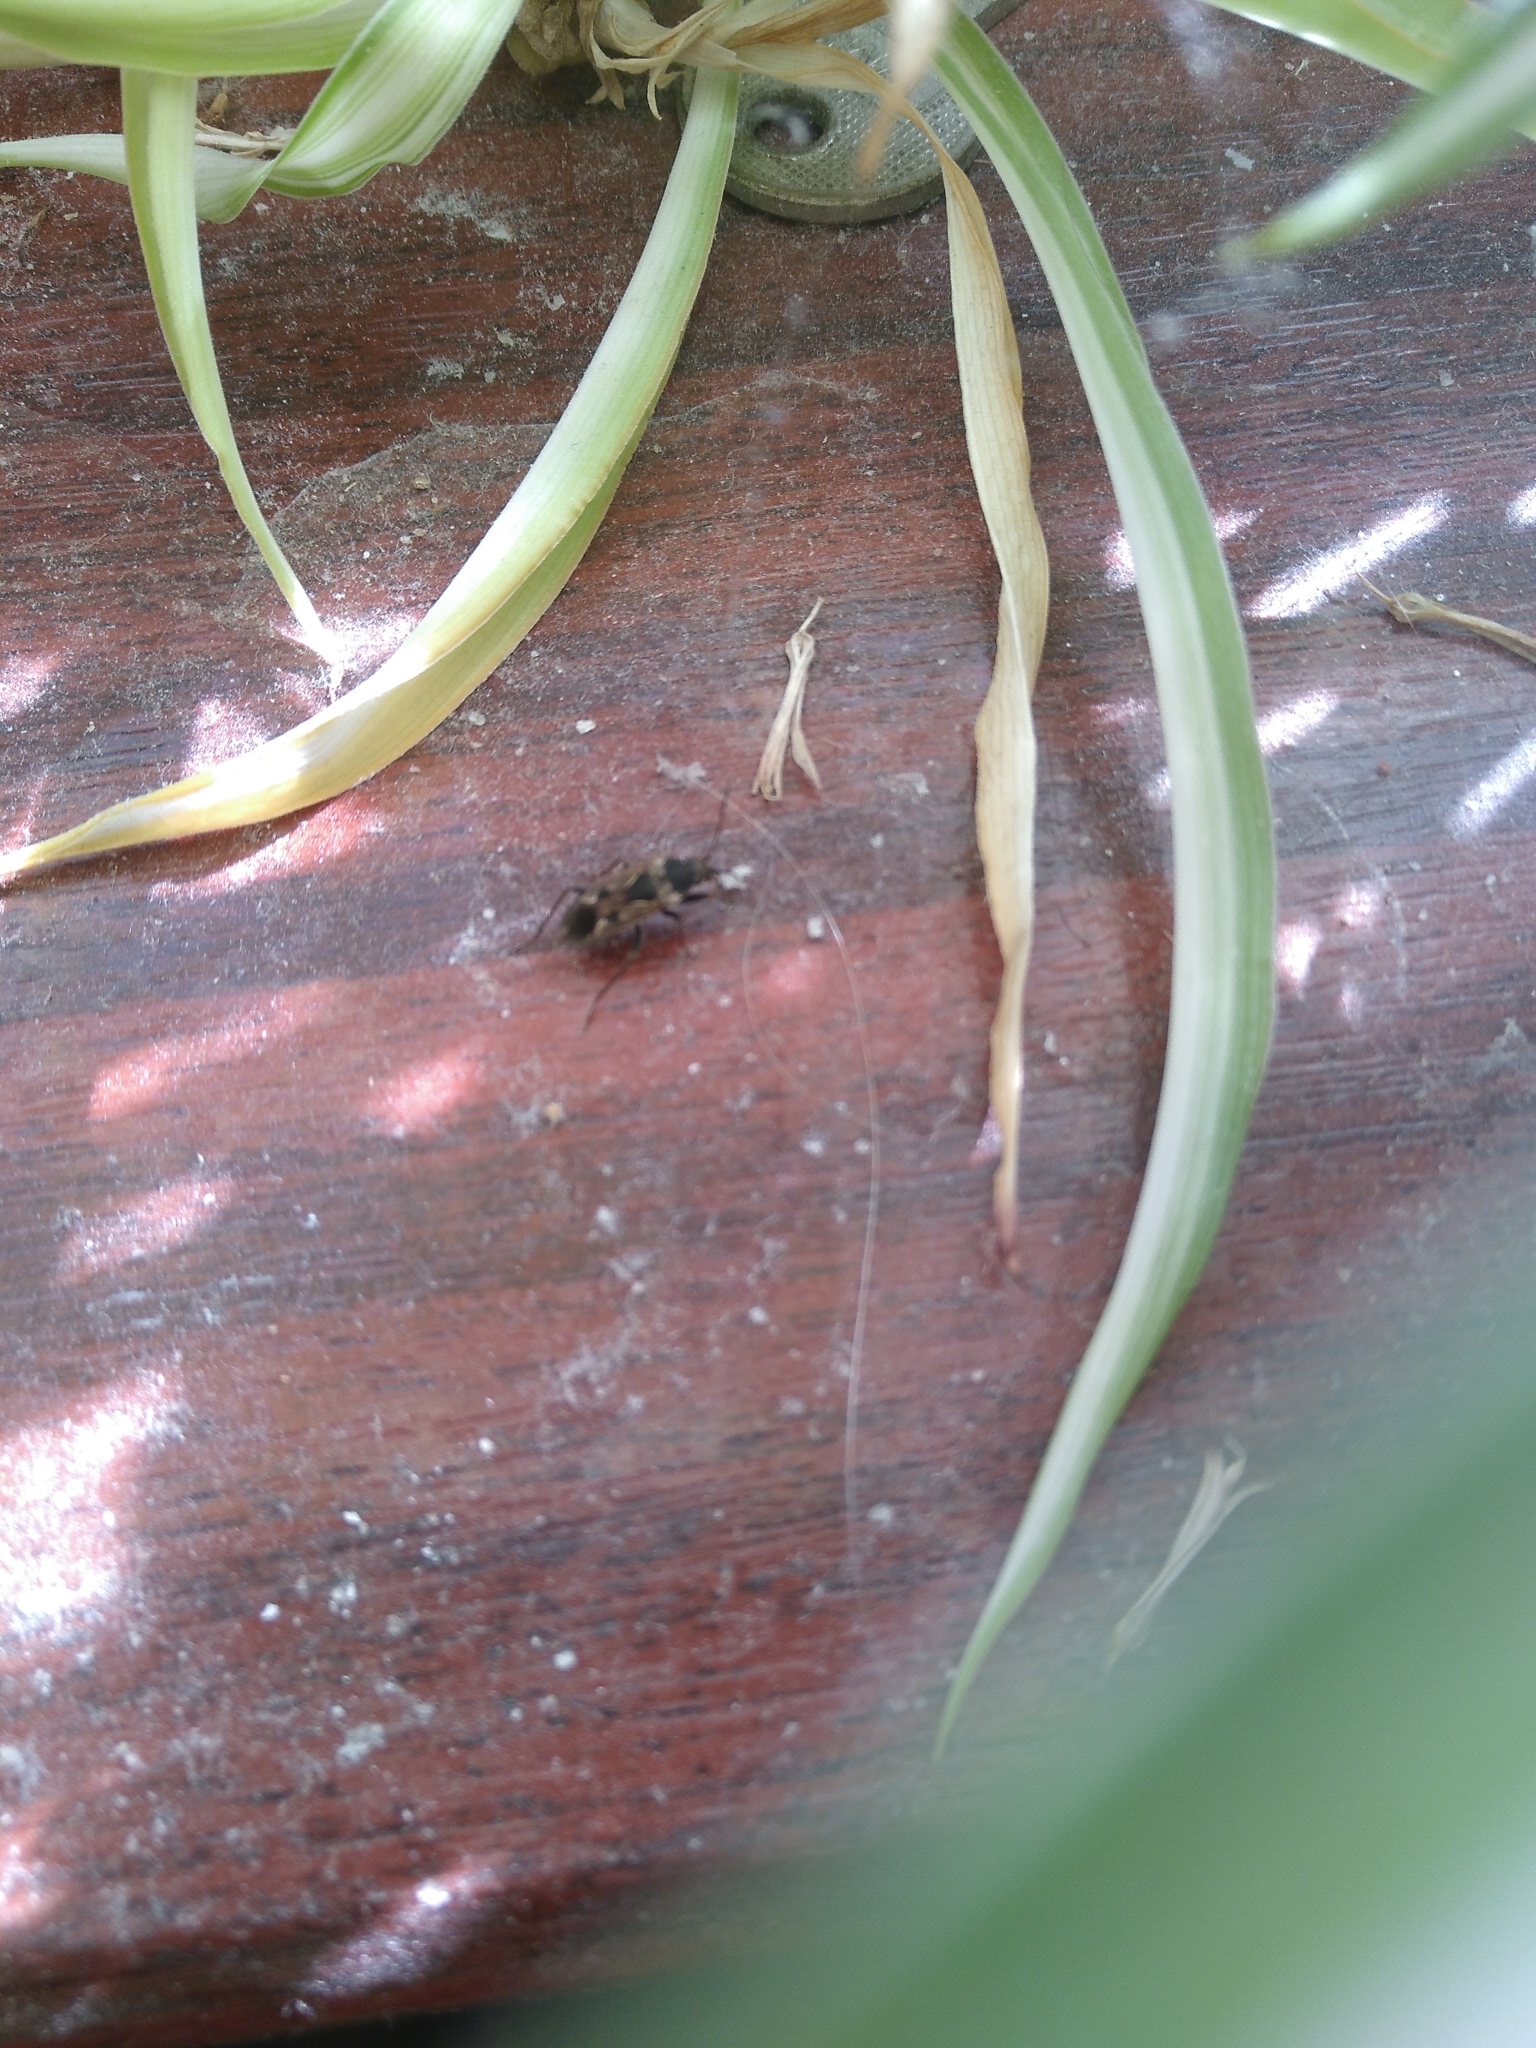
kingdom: Animalia
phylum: Arthropoda
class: Insecta
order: Hemiptera
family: Rhyparochromidae
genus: Rhyparochromus
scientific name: Rhyparochromus vulgaris
